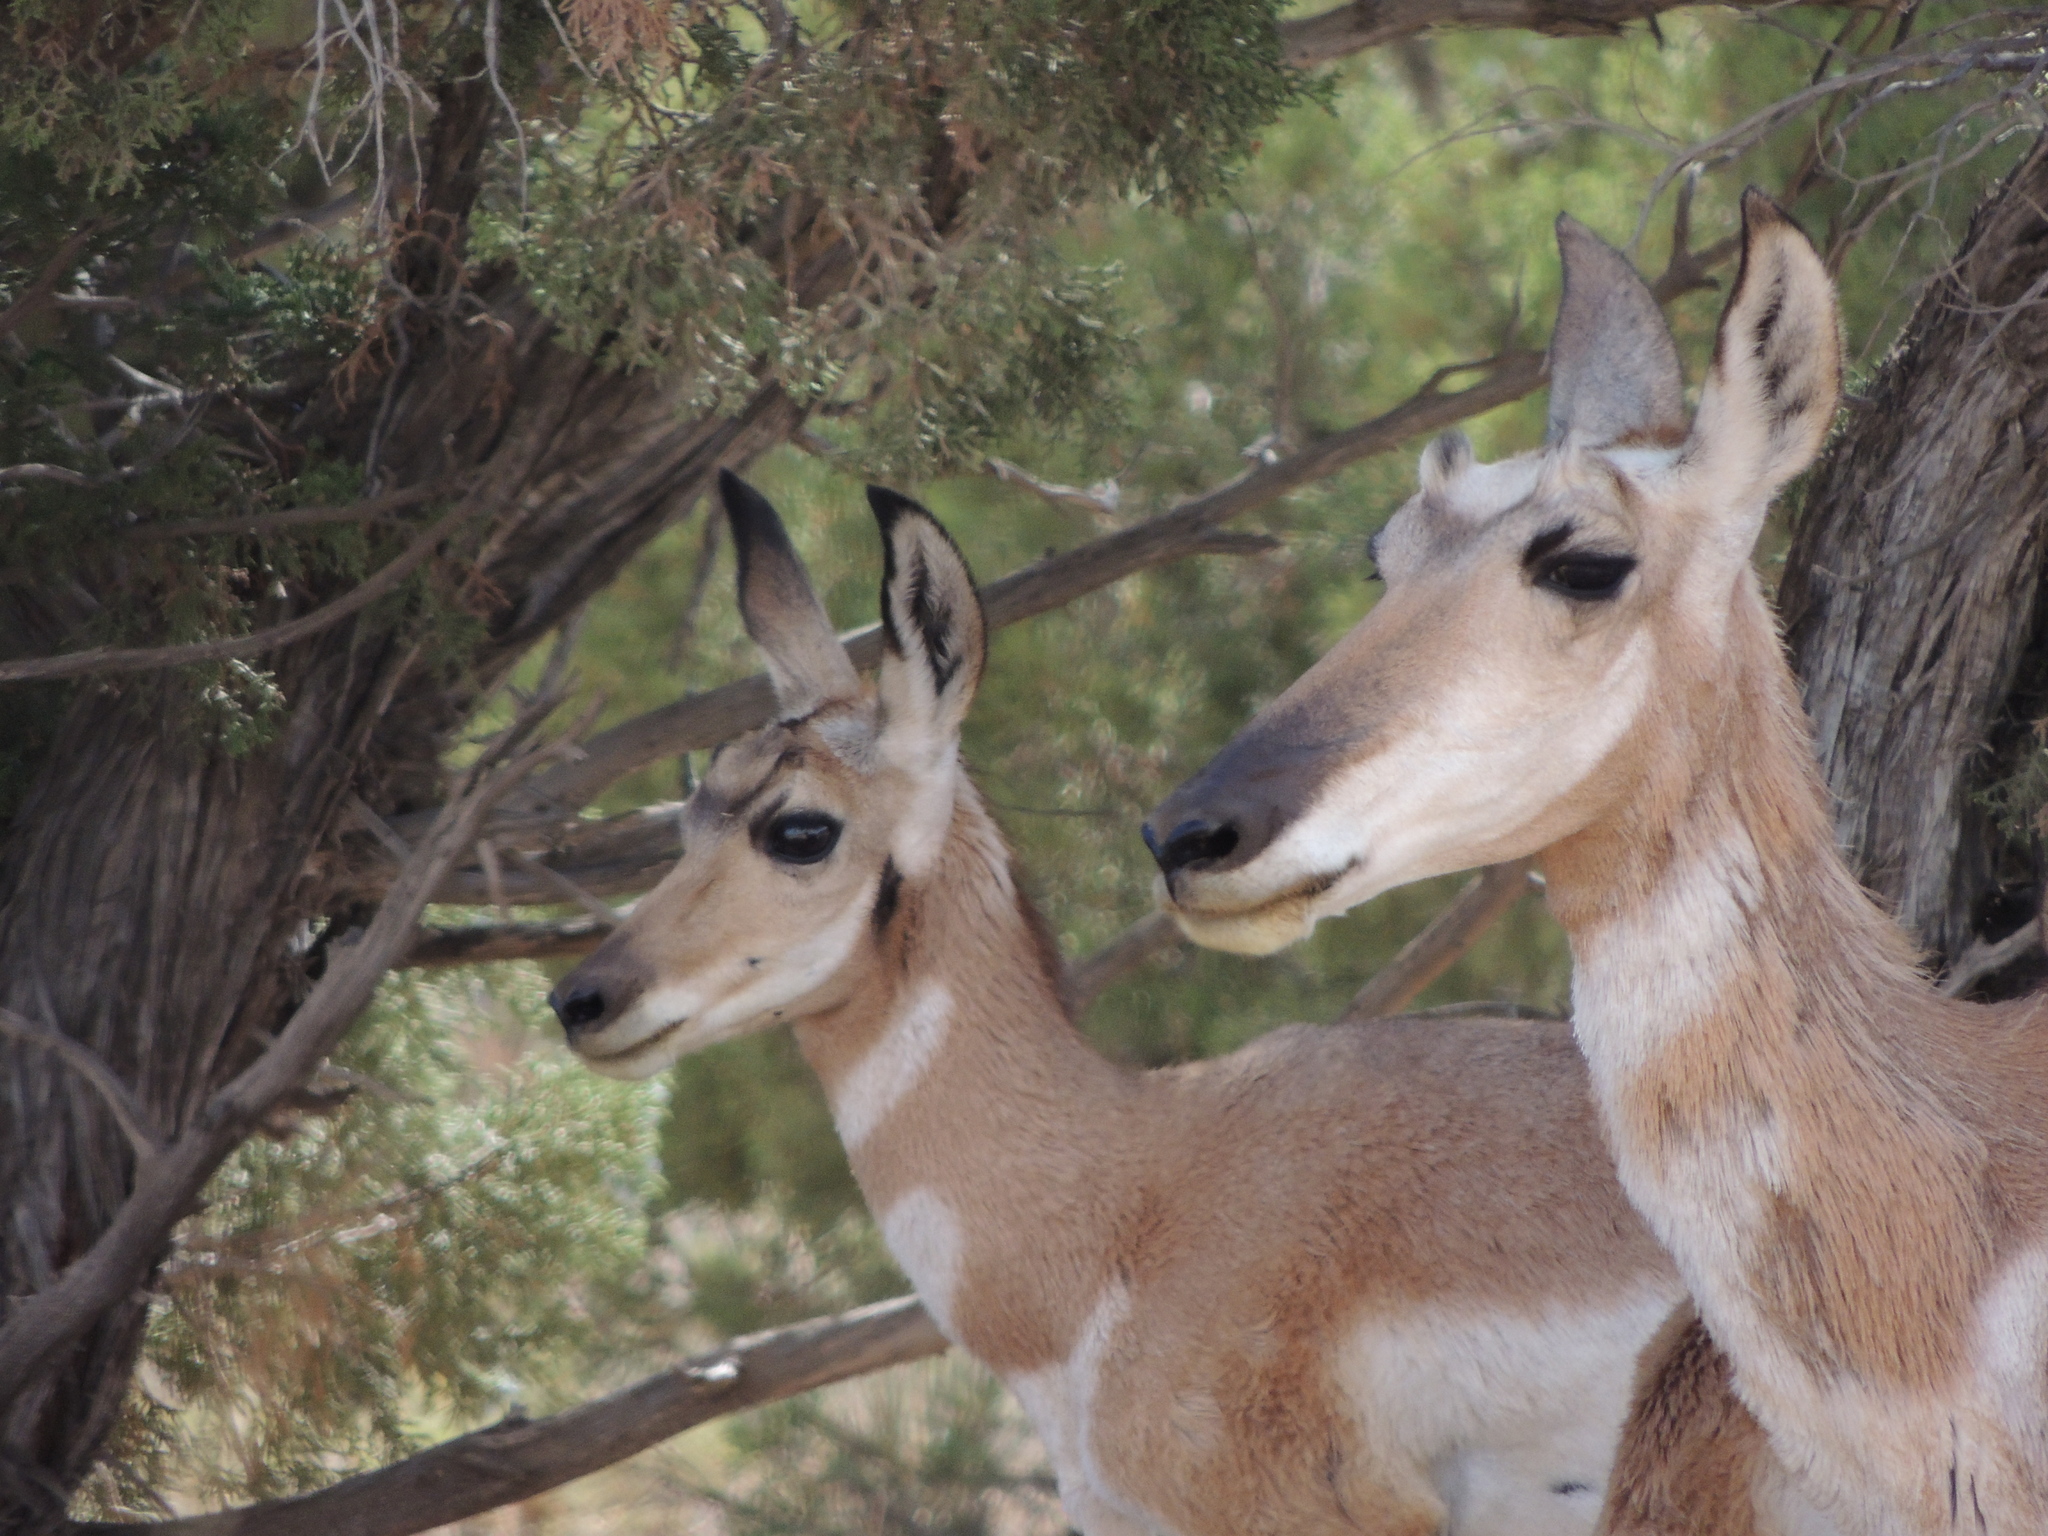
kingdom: Animalia
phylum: Chordata
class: Mammalia
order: Artiodactyla
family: Antilocapridae
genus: Antilocapra
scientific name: Antilocapra americana
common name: Pronghorn
